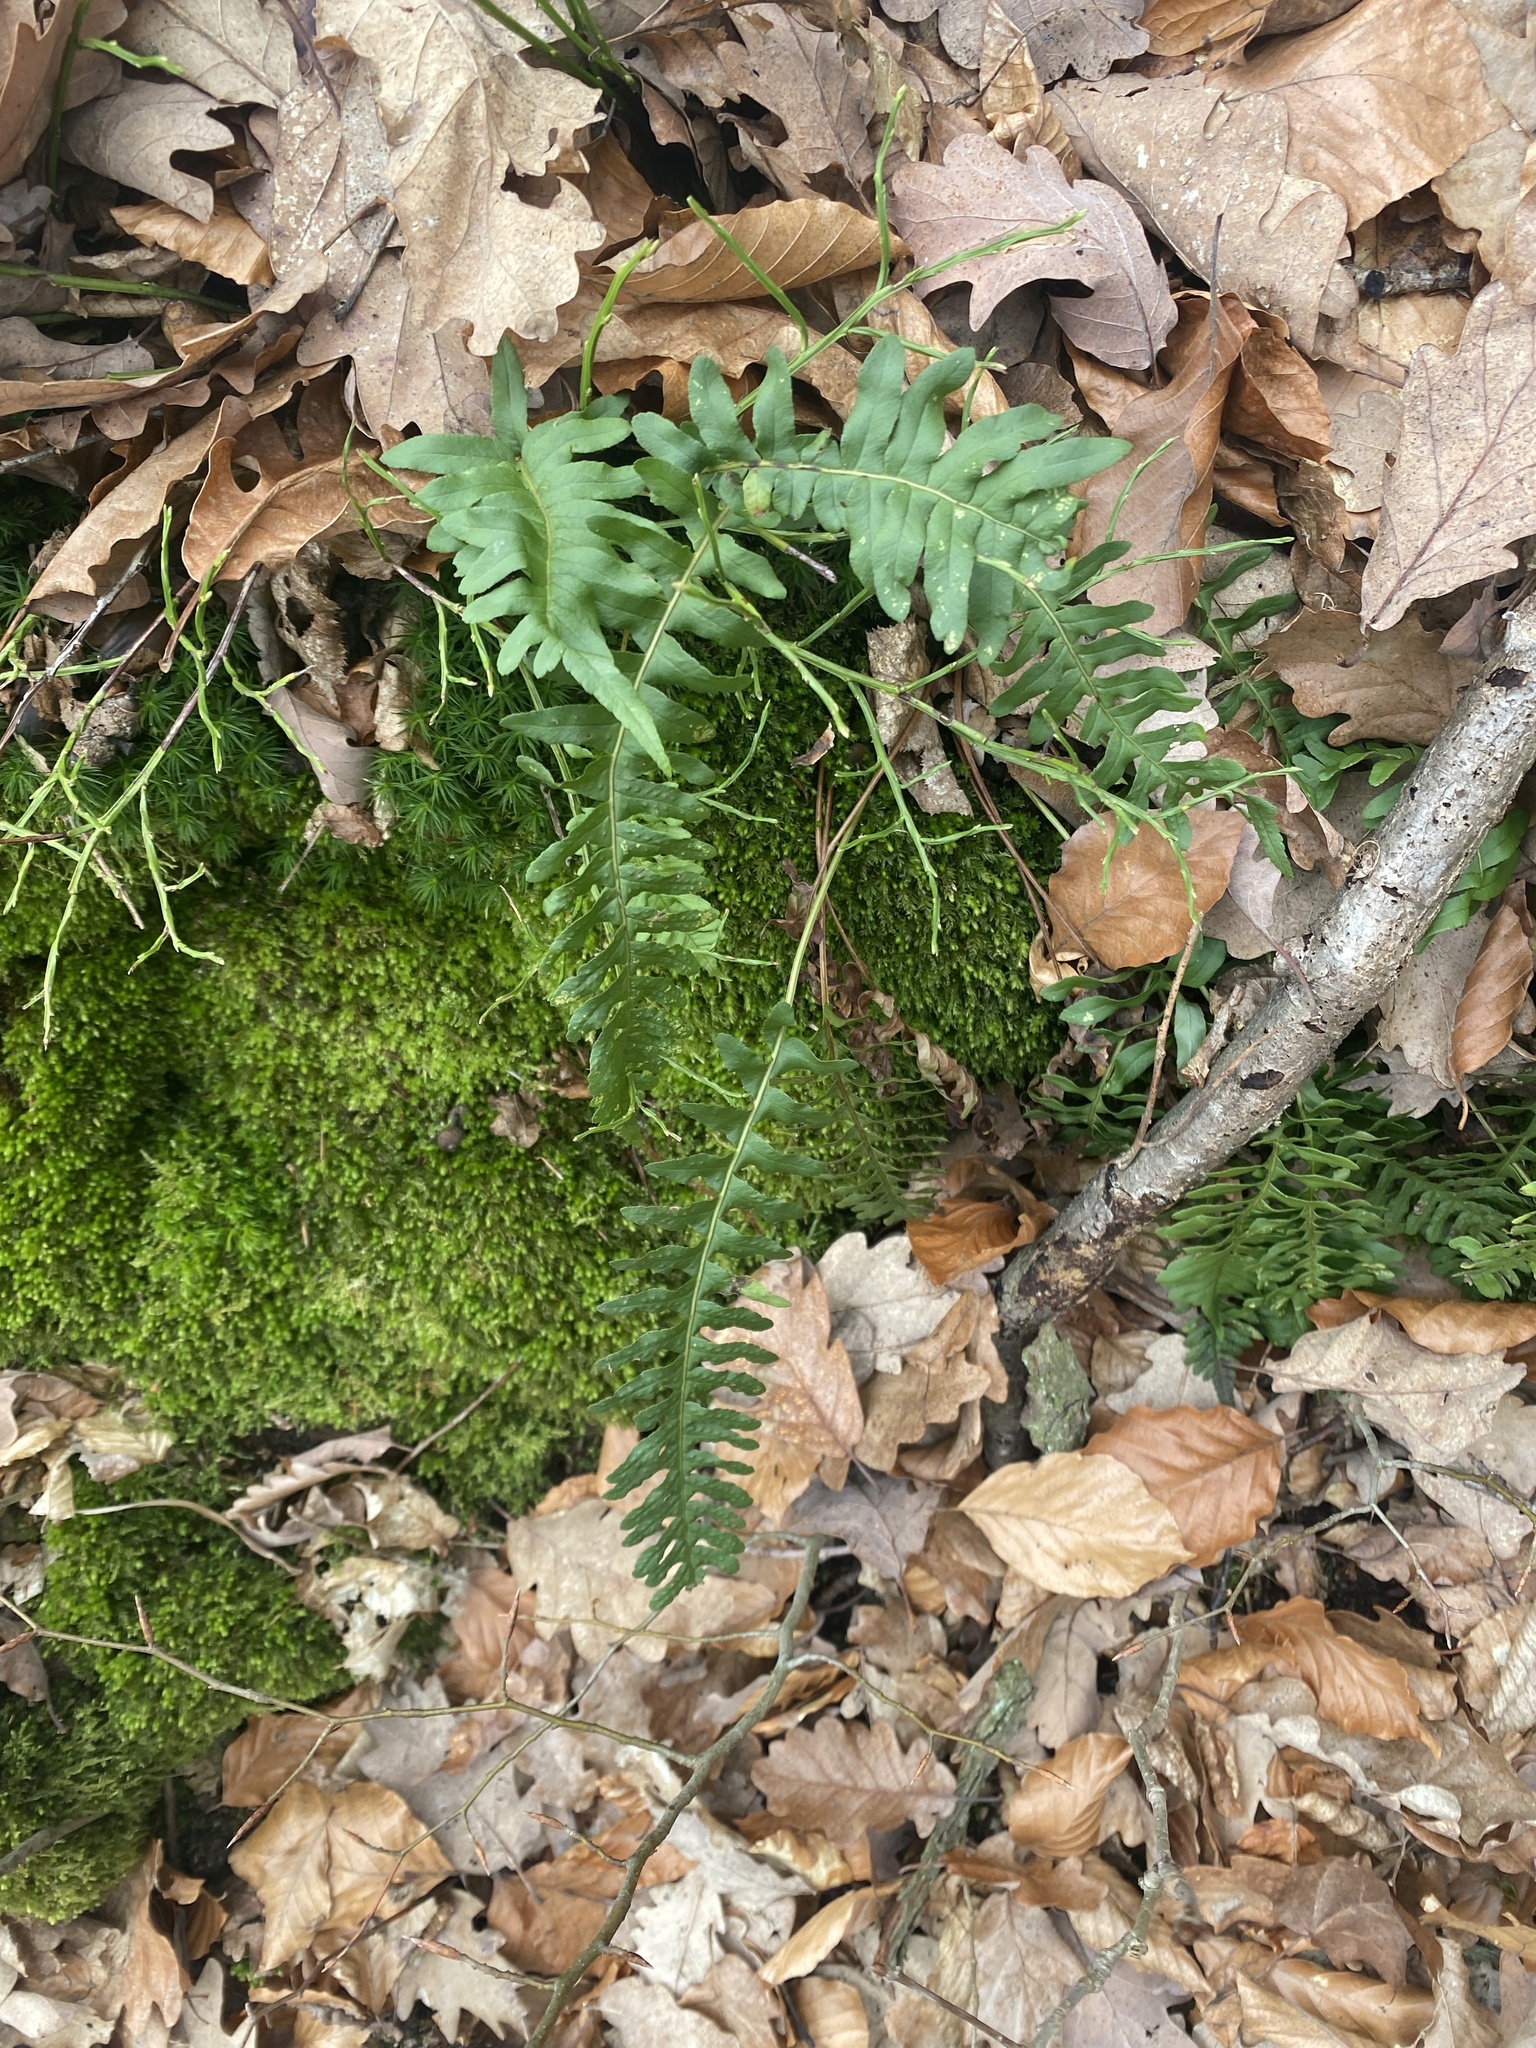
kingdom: Plantae
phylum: Tracheophyta
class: Polypodiopsida
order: Polypodiales
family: Polypodiaceae
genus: Polypodium
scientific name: Polypodium vulgare
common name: Common polypody
